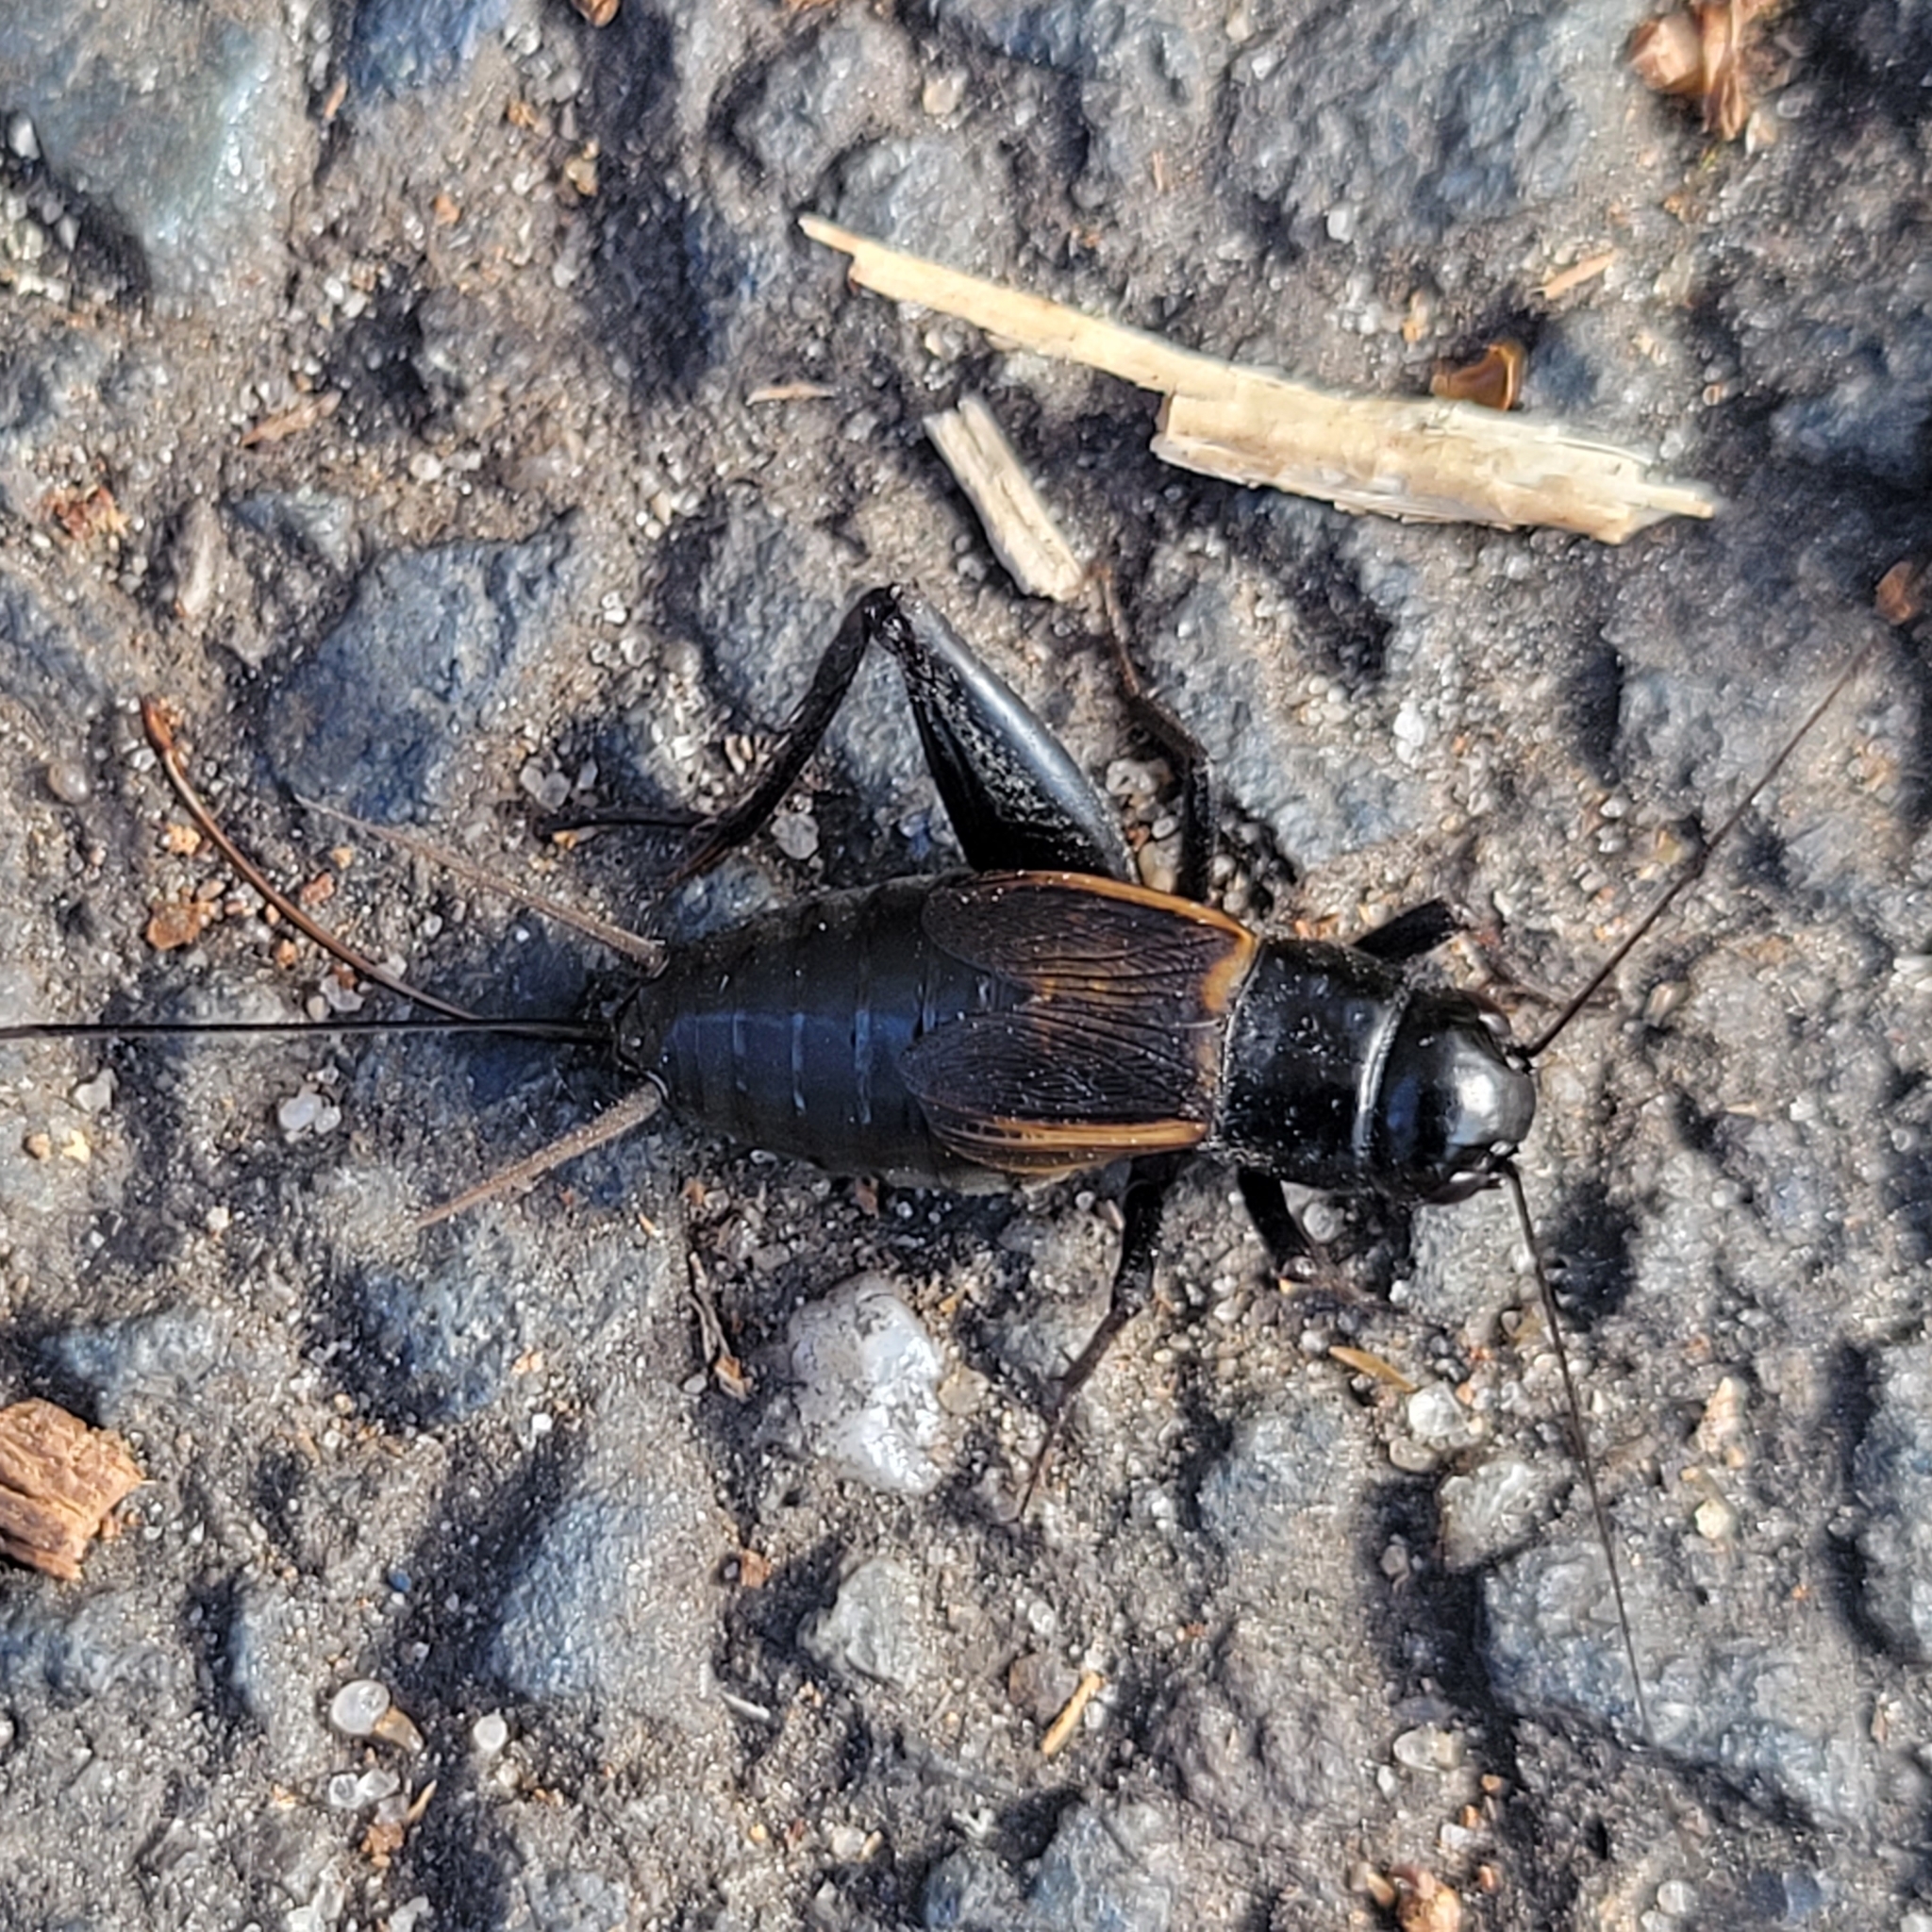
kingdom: Animalia
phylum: Arthropoda
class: Insecta
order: Orthoptera
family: Gryllidae
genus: Gryllus
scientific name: Gryllus pennsylvanicus
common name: Fall field cricket
